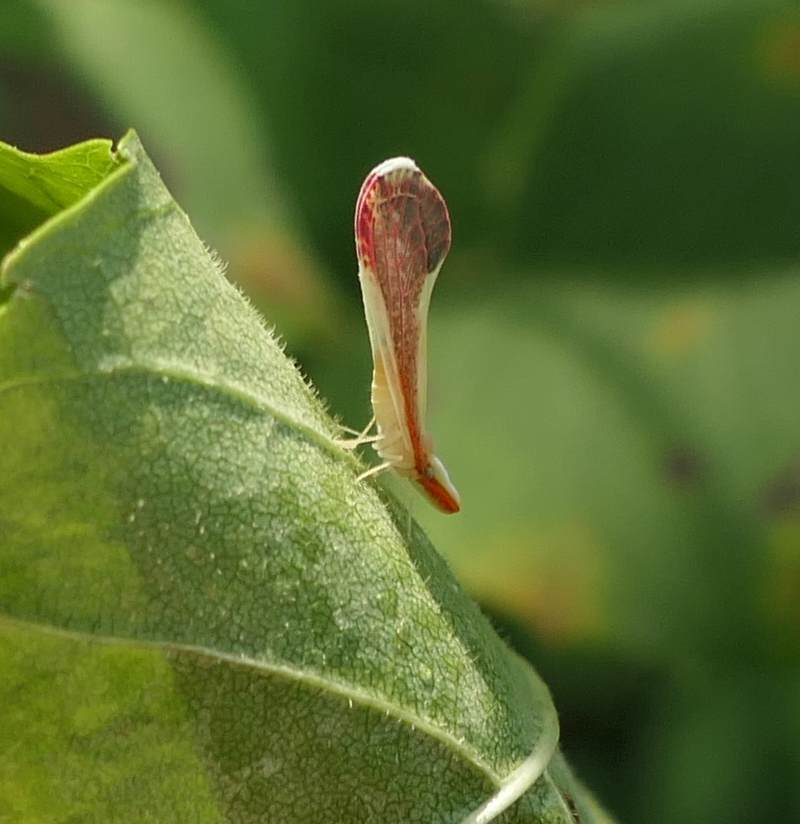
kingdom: Animalia
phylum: Arthropoda
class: Insecta
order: Hemiptera
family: Derbidae
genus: Shellenius
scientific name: Shellenius ballii
